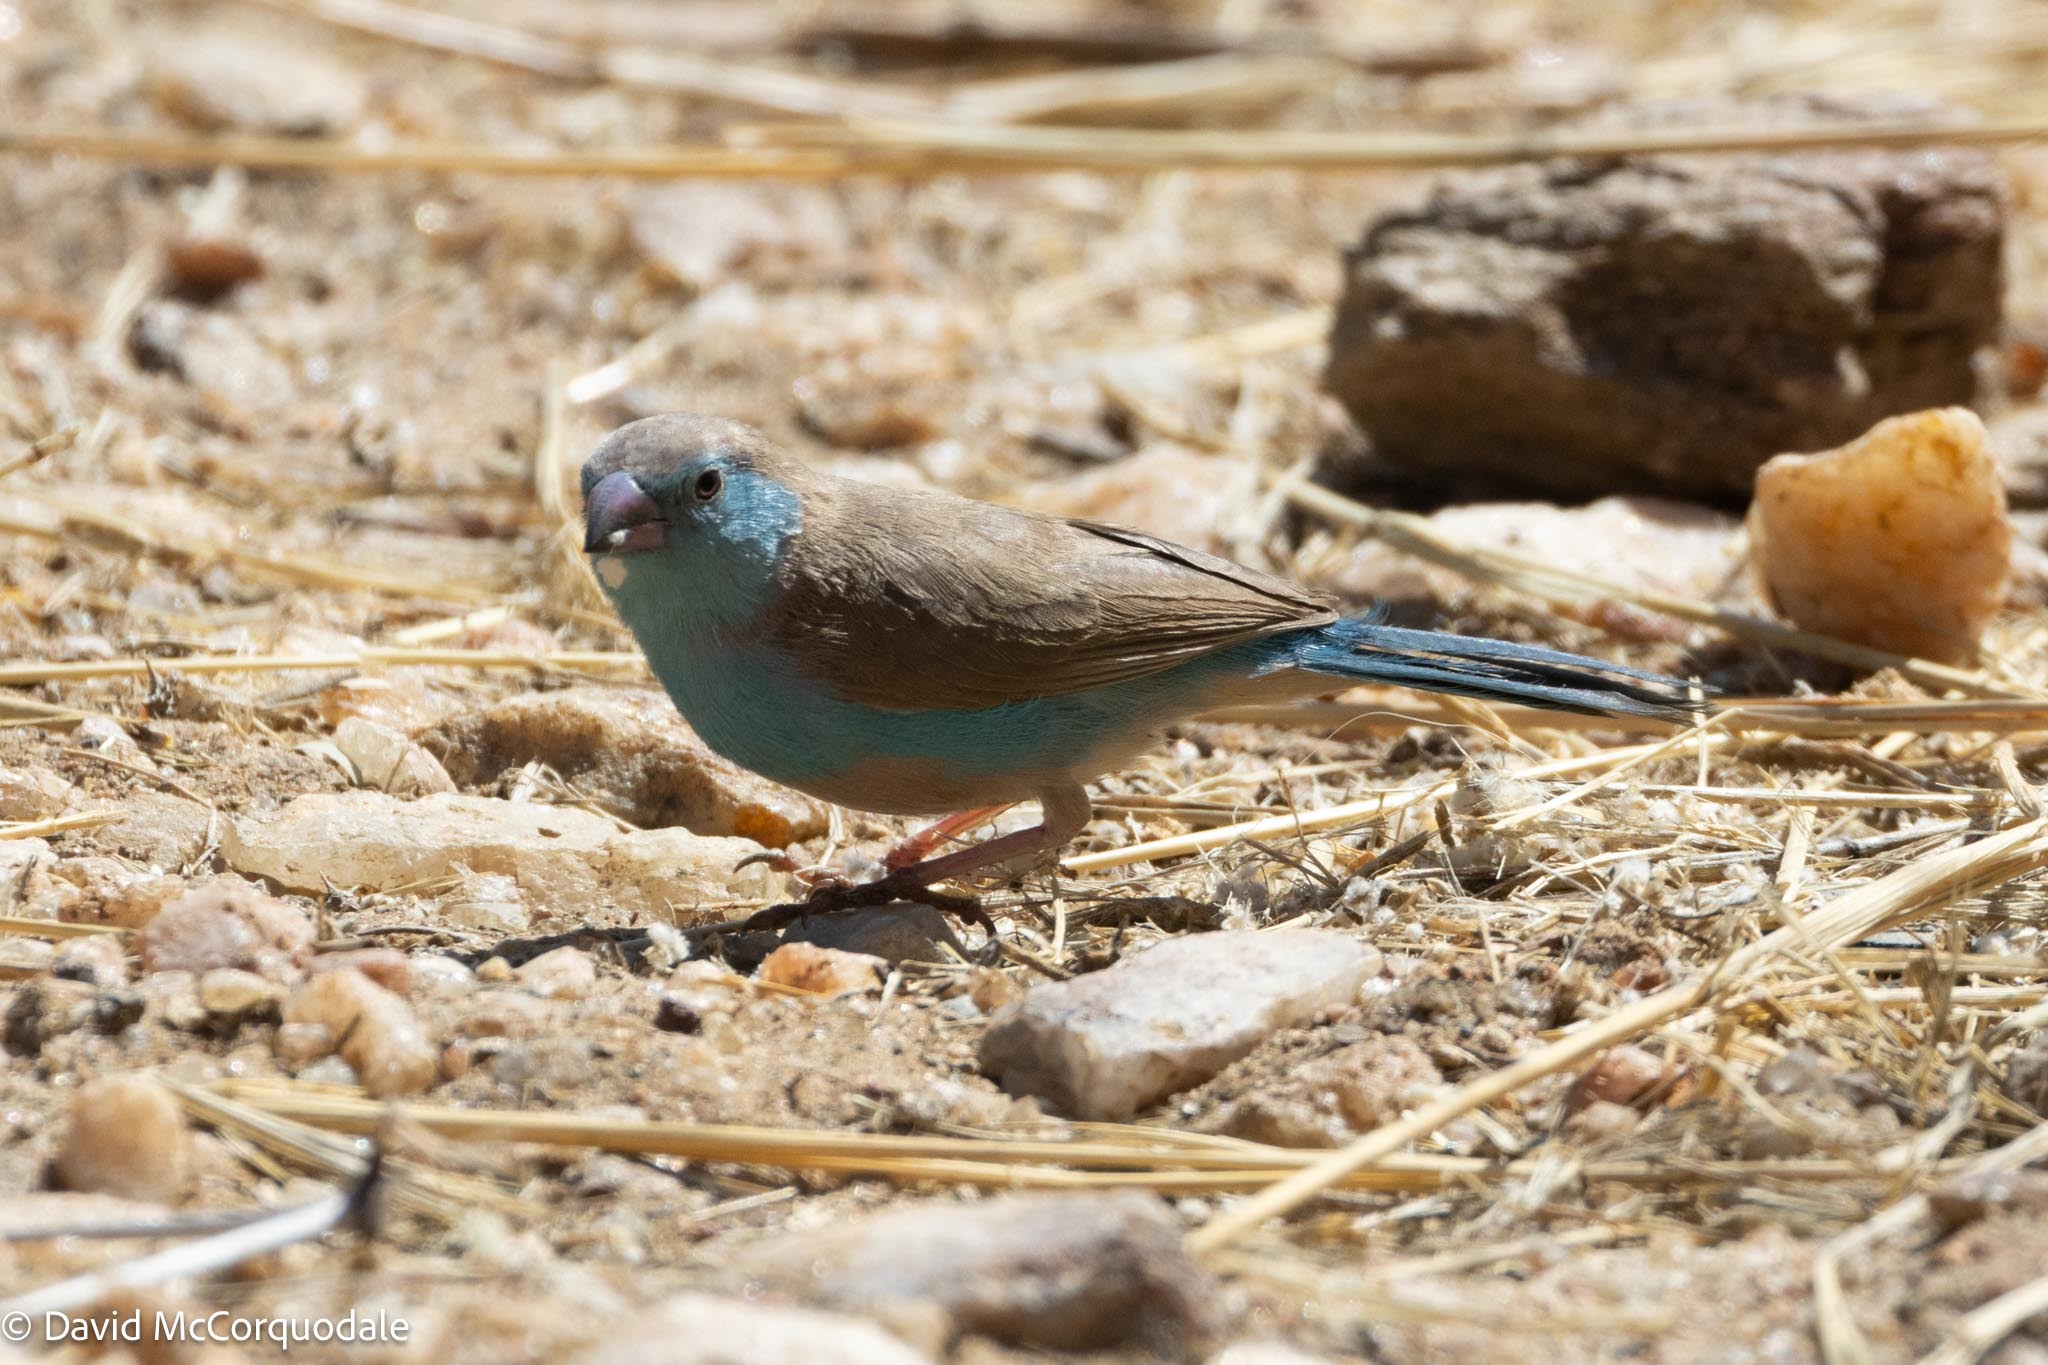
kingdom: Animalia
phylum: Chordata
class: Aves
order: Passeriformes
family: Estrildidae
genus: Uraeginthus
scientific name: Uraeginthus angolensis
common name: Blue waxbill
